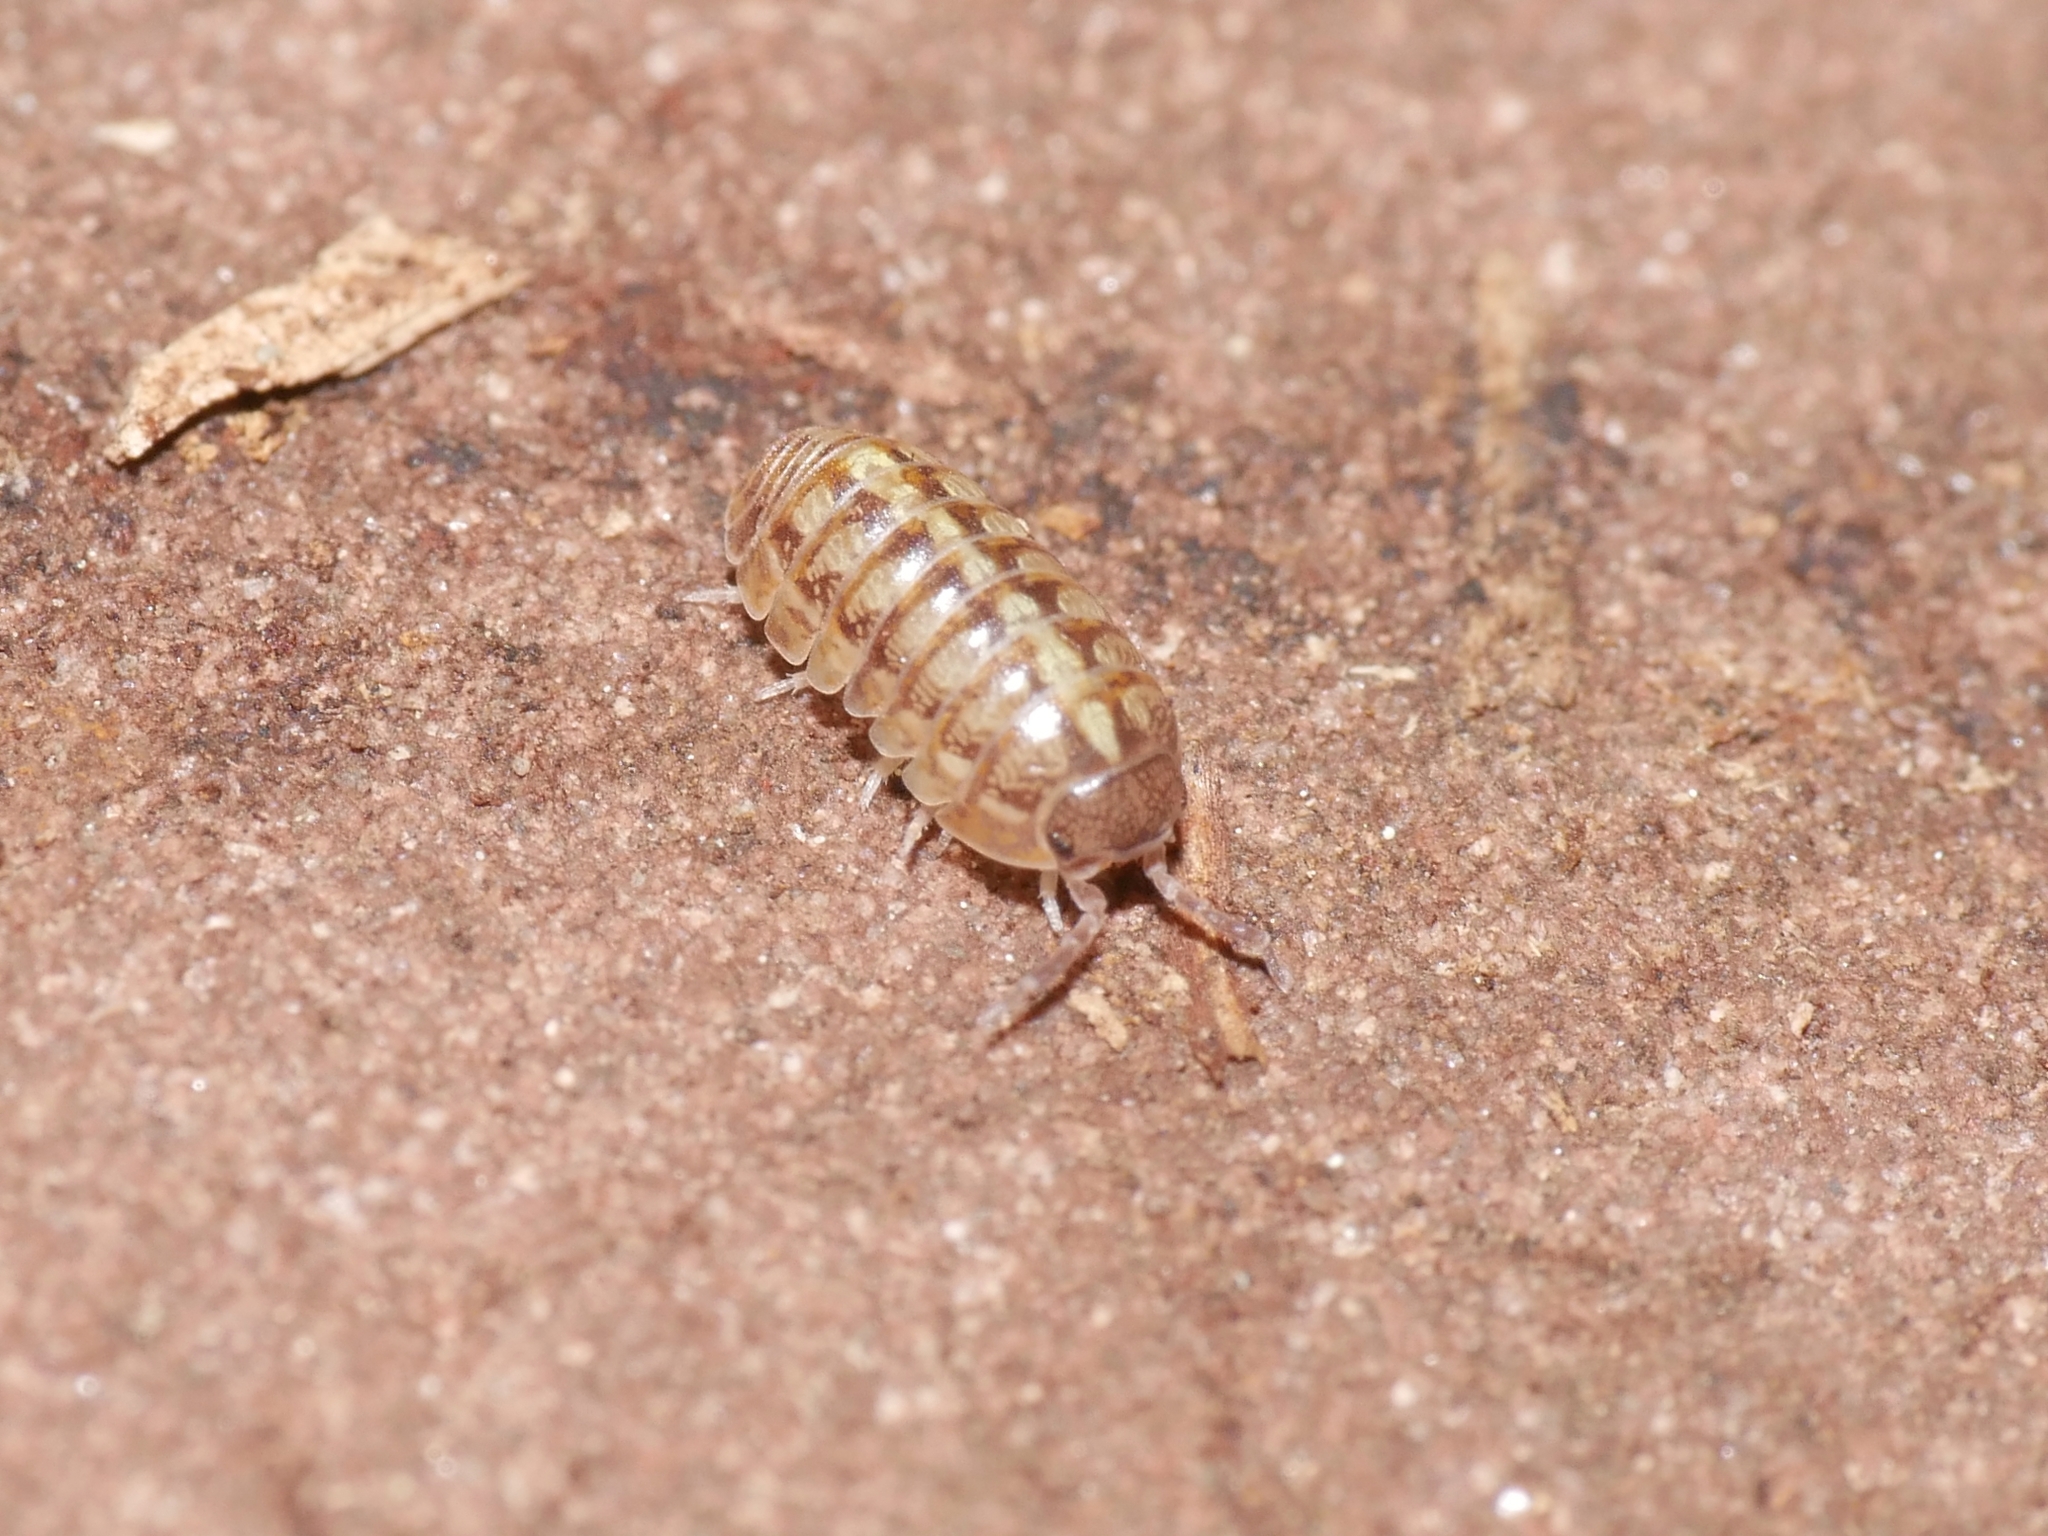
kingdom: Animalia
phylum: Arthropoda
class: Malacostraca
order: Isopoda
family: Armadillidiidae
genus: Armadillidium
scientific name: Armadillidium vulgare
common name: Common pill woodlouse
